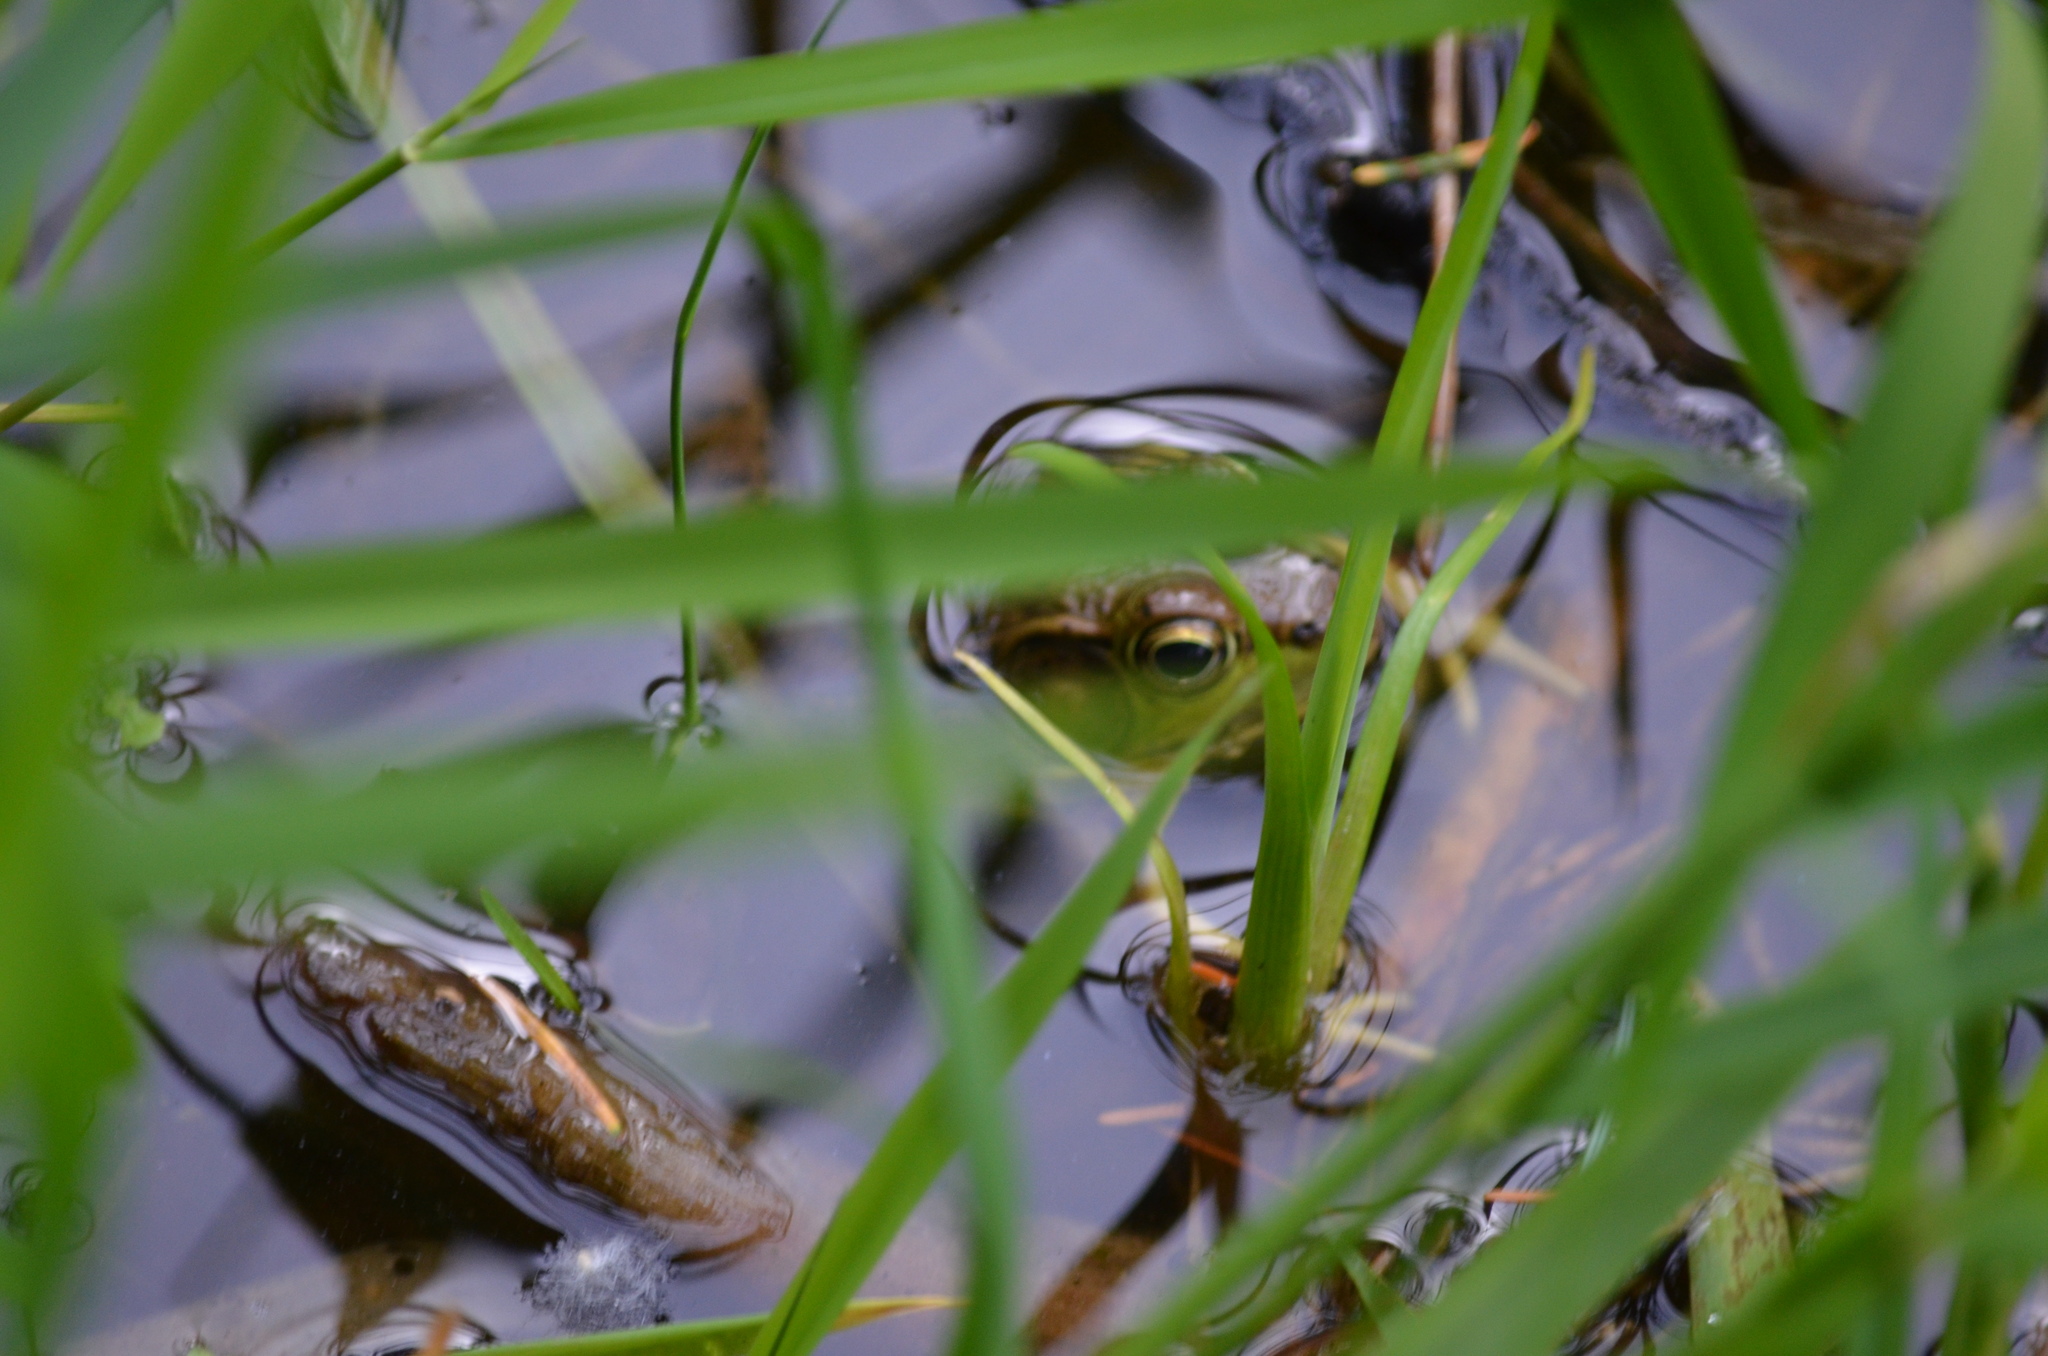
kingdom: Animalia
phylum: Chordata
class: Amphibia
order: Anura
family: Ranidae
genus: Lithobates
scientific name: Lithobates clamitans
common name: Green frog
